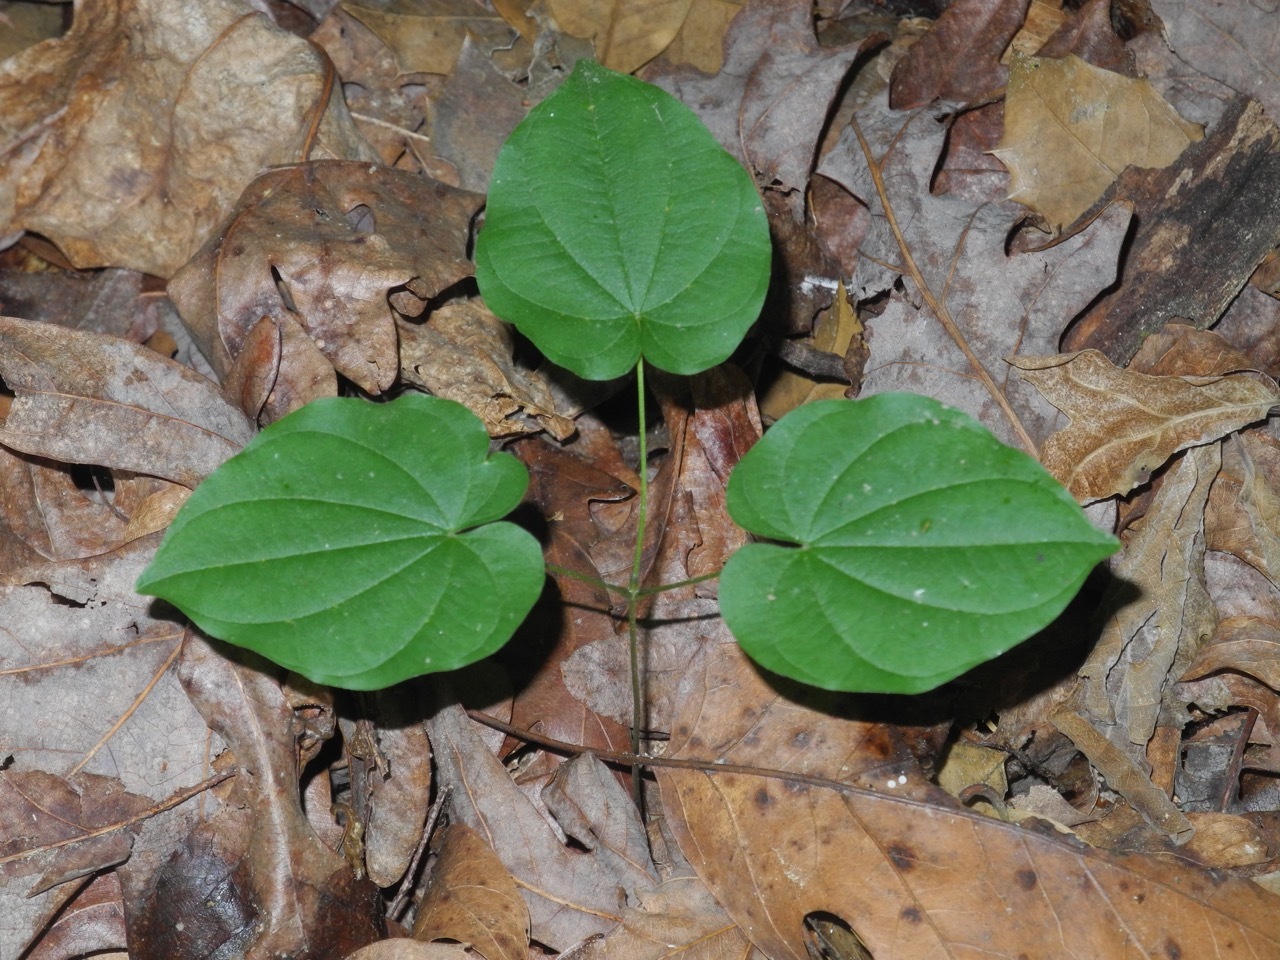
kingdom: Plantae
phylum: Tracheophyta
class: Liliopsida
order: Dioscoreales
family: Dioscoreaceae
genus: Dioscorea
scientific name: Dioscorea villosa
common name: Wild yam
